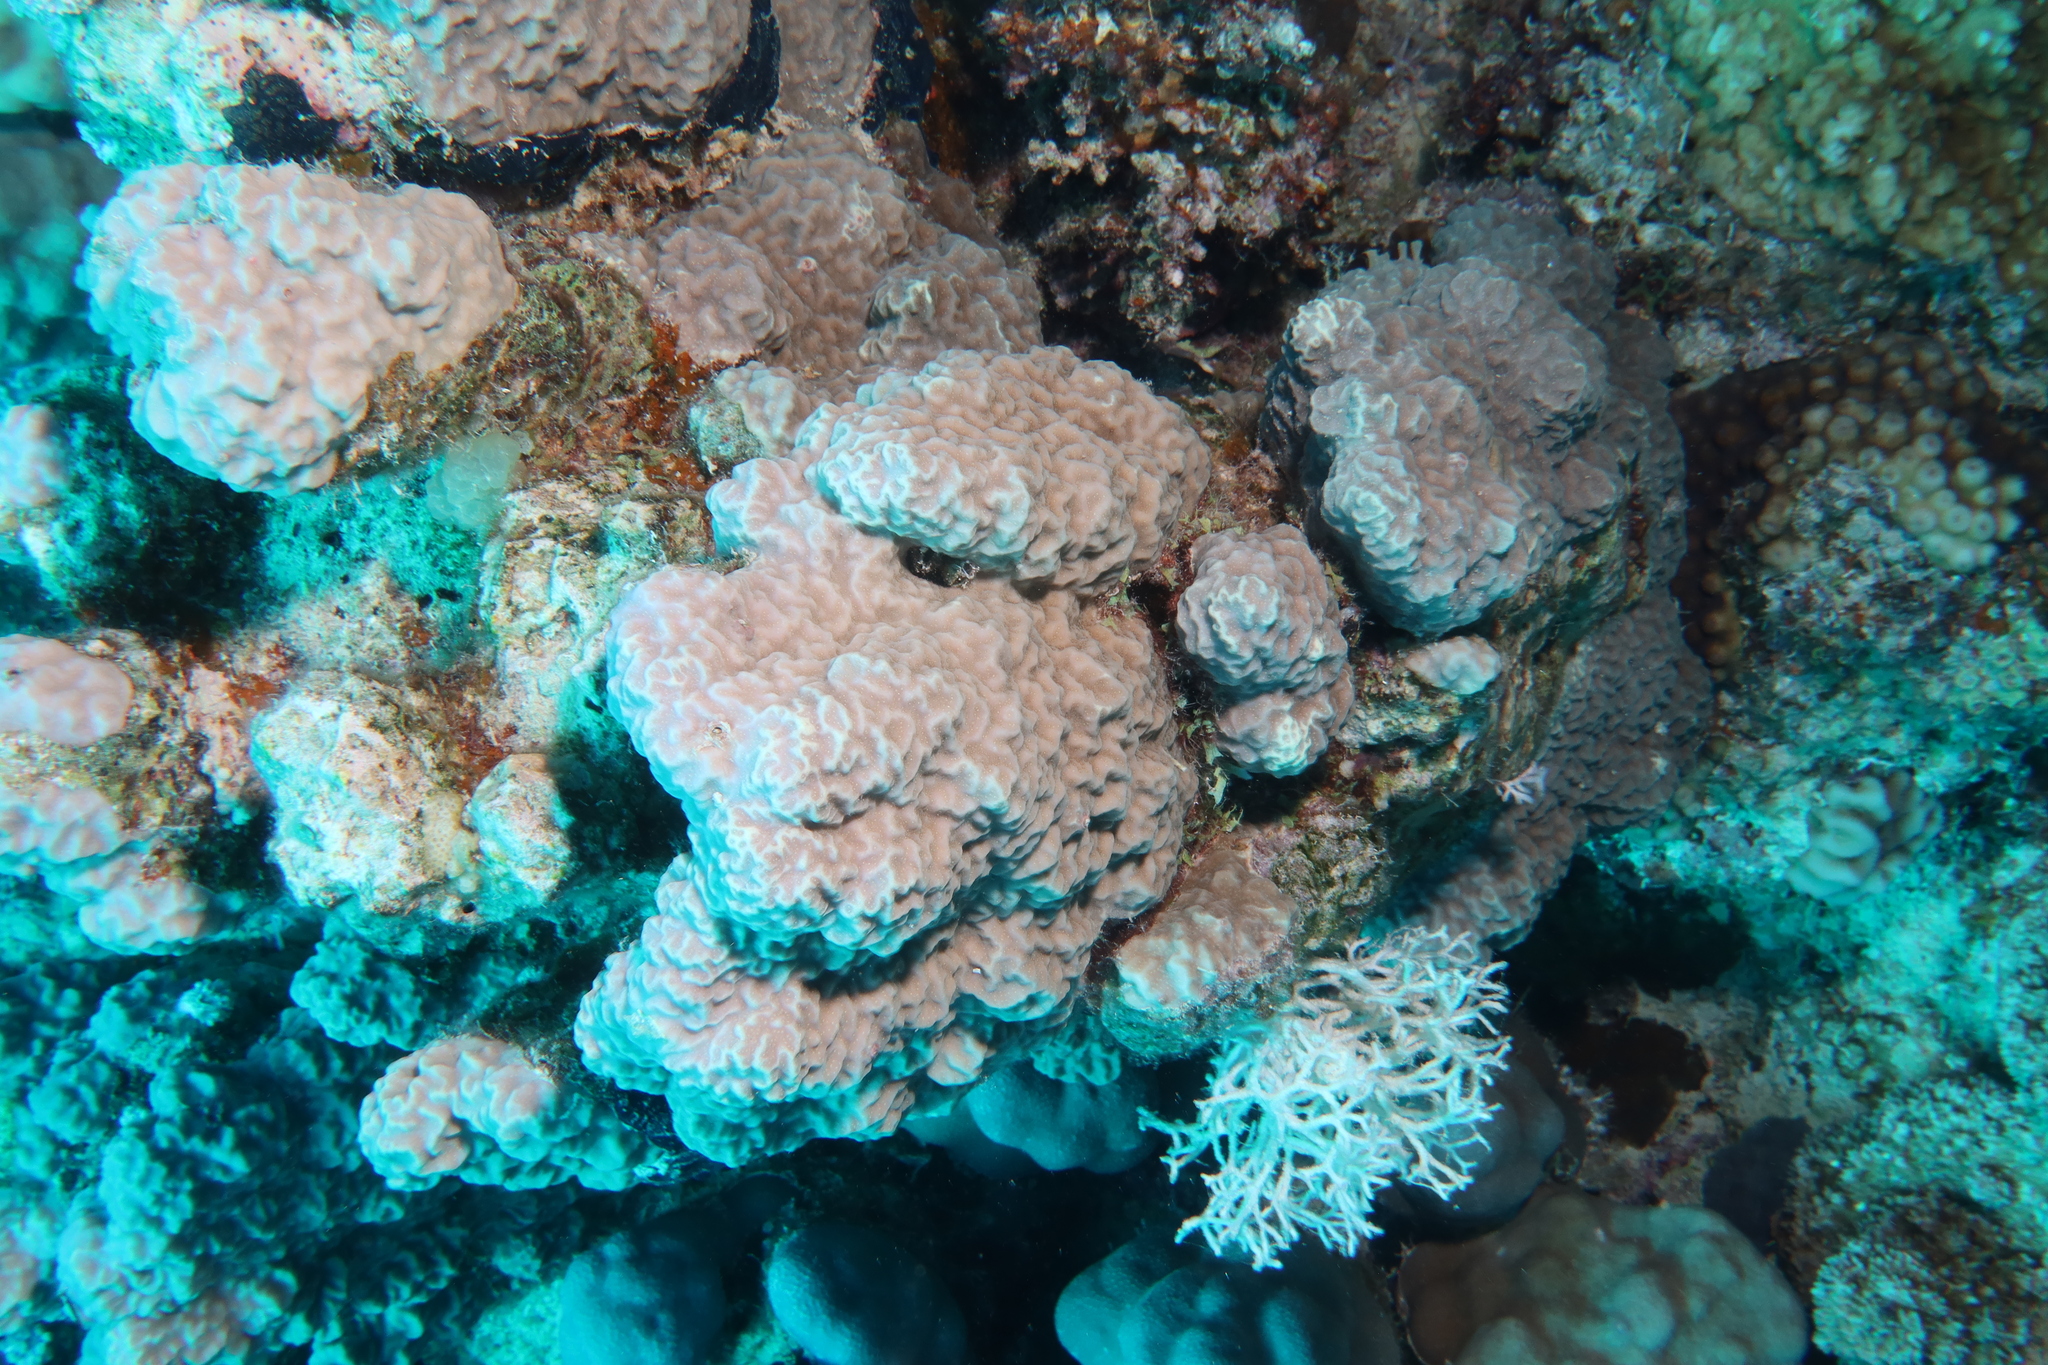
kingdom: Animalia
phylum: Cnidaria
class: Anthozoa
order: Scleractinia
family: Poritidae
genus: Porites
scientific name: Porites rus
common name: Hump coral
